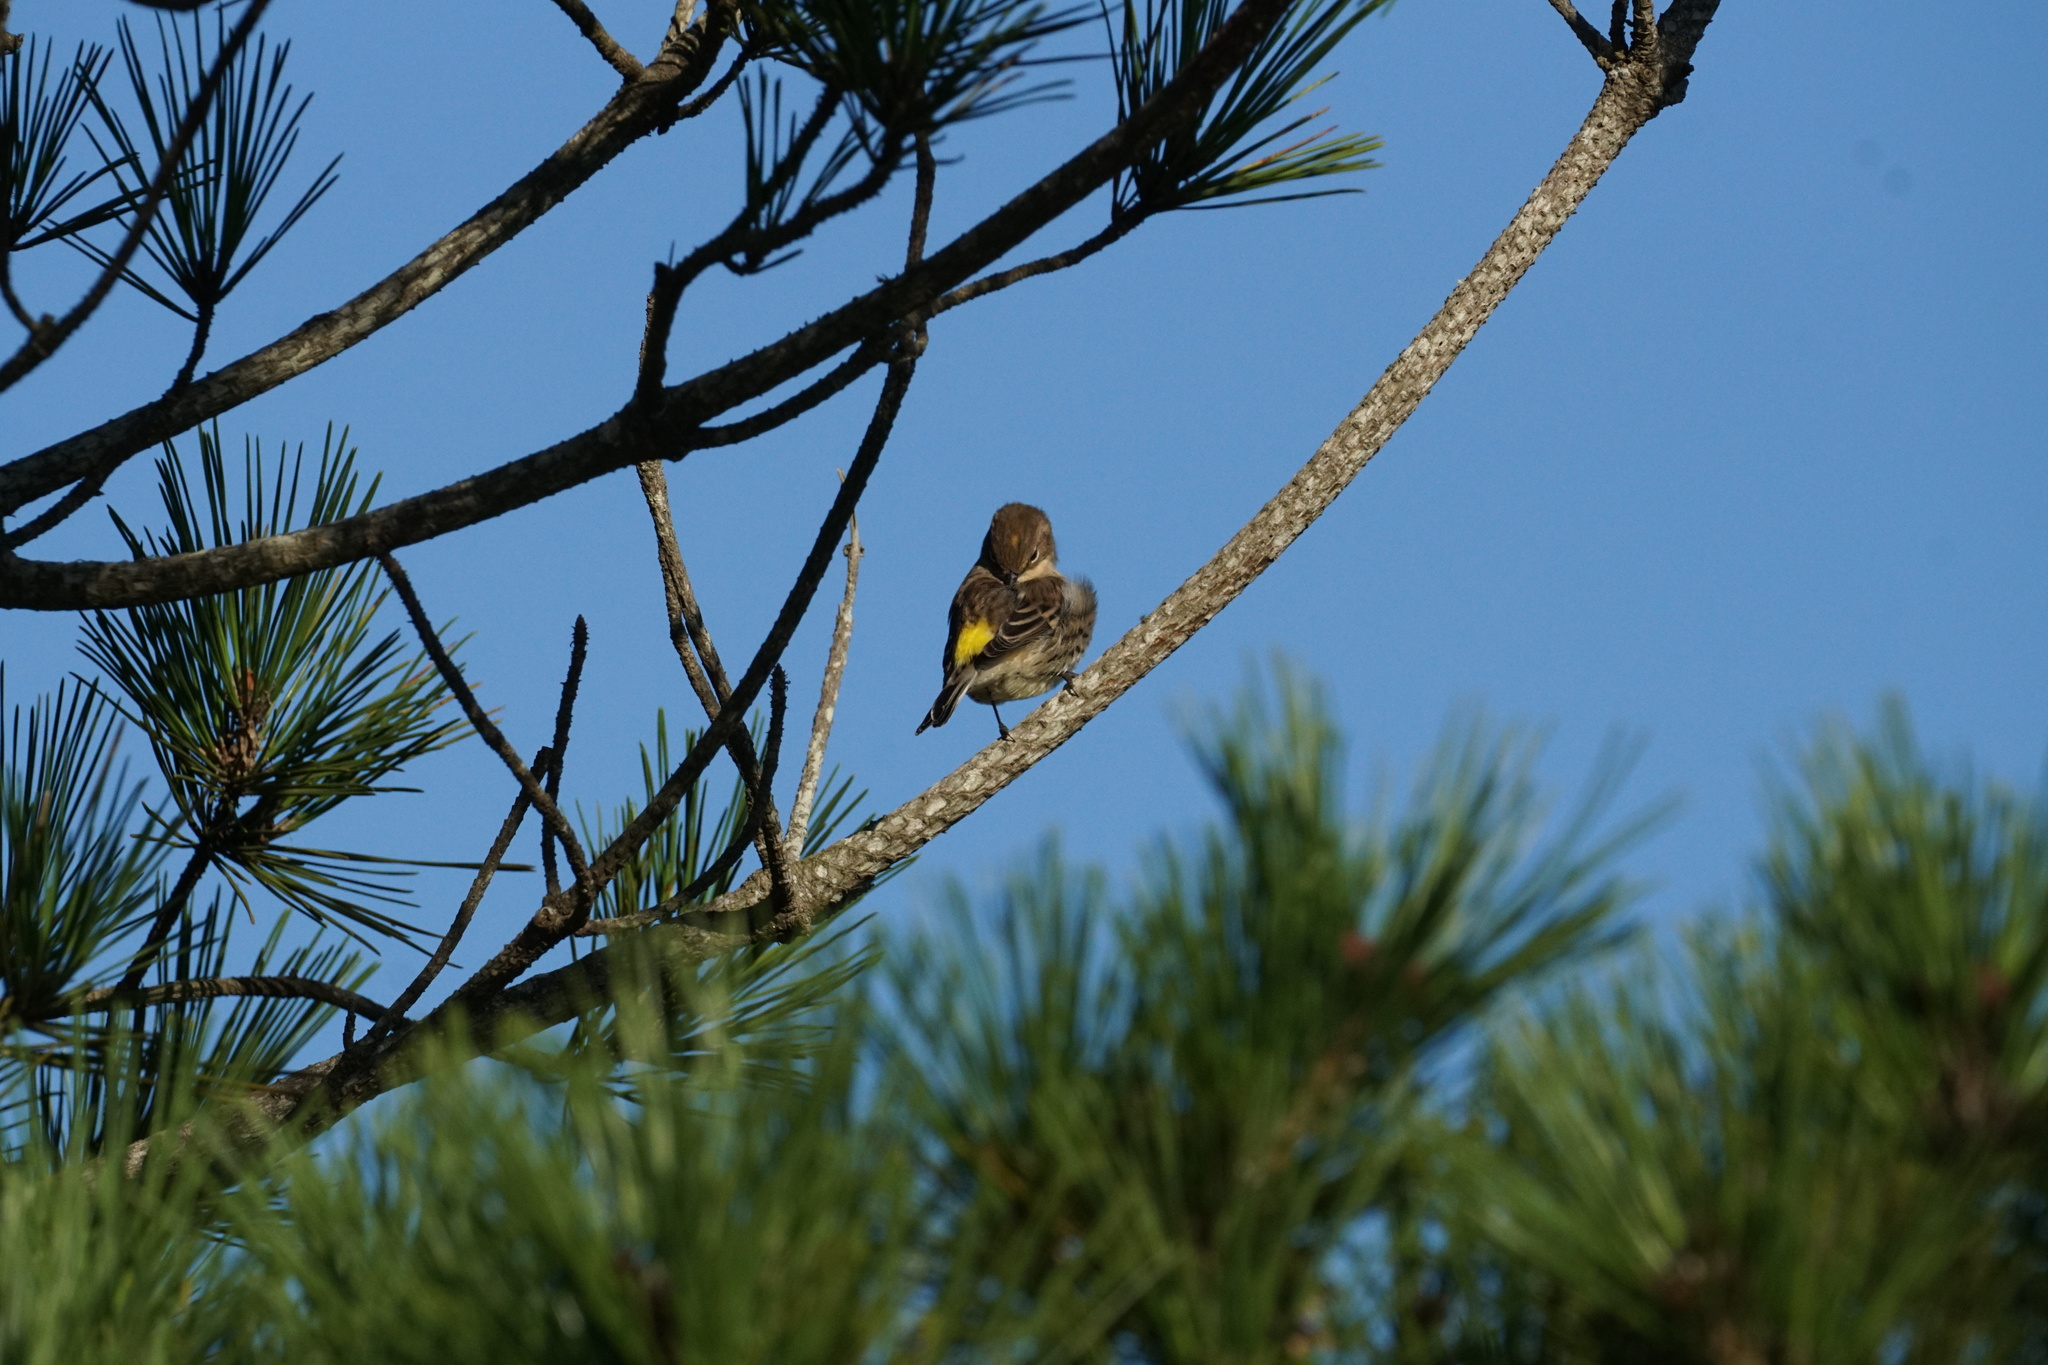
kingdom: Animalia
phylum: Chordata
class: Aves
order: Passeriformes
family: Parulidae
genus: Setophaga
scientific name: Setophaga coronata
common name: Myrtle warbler
